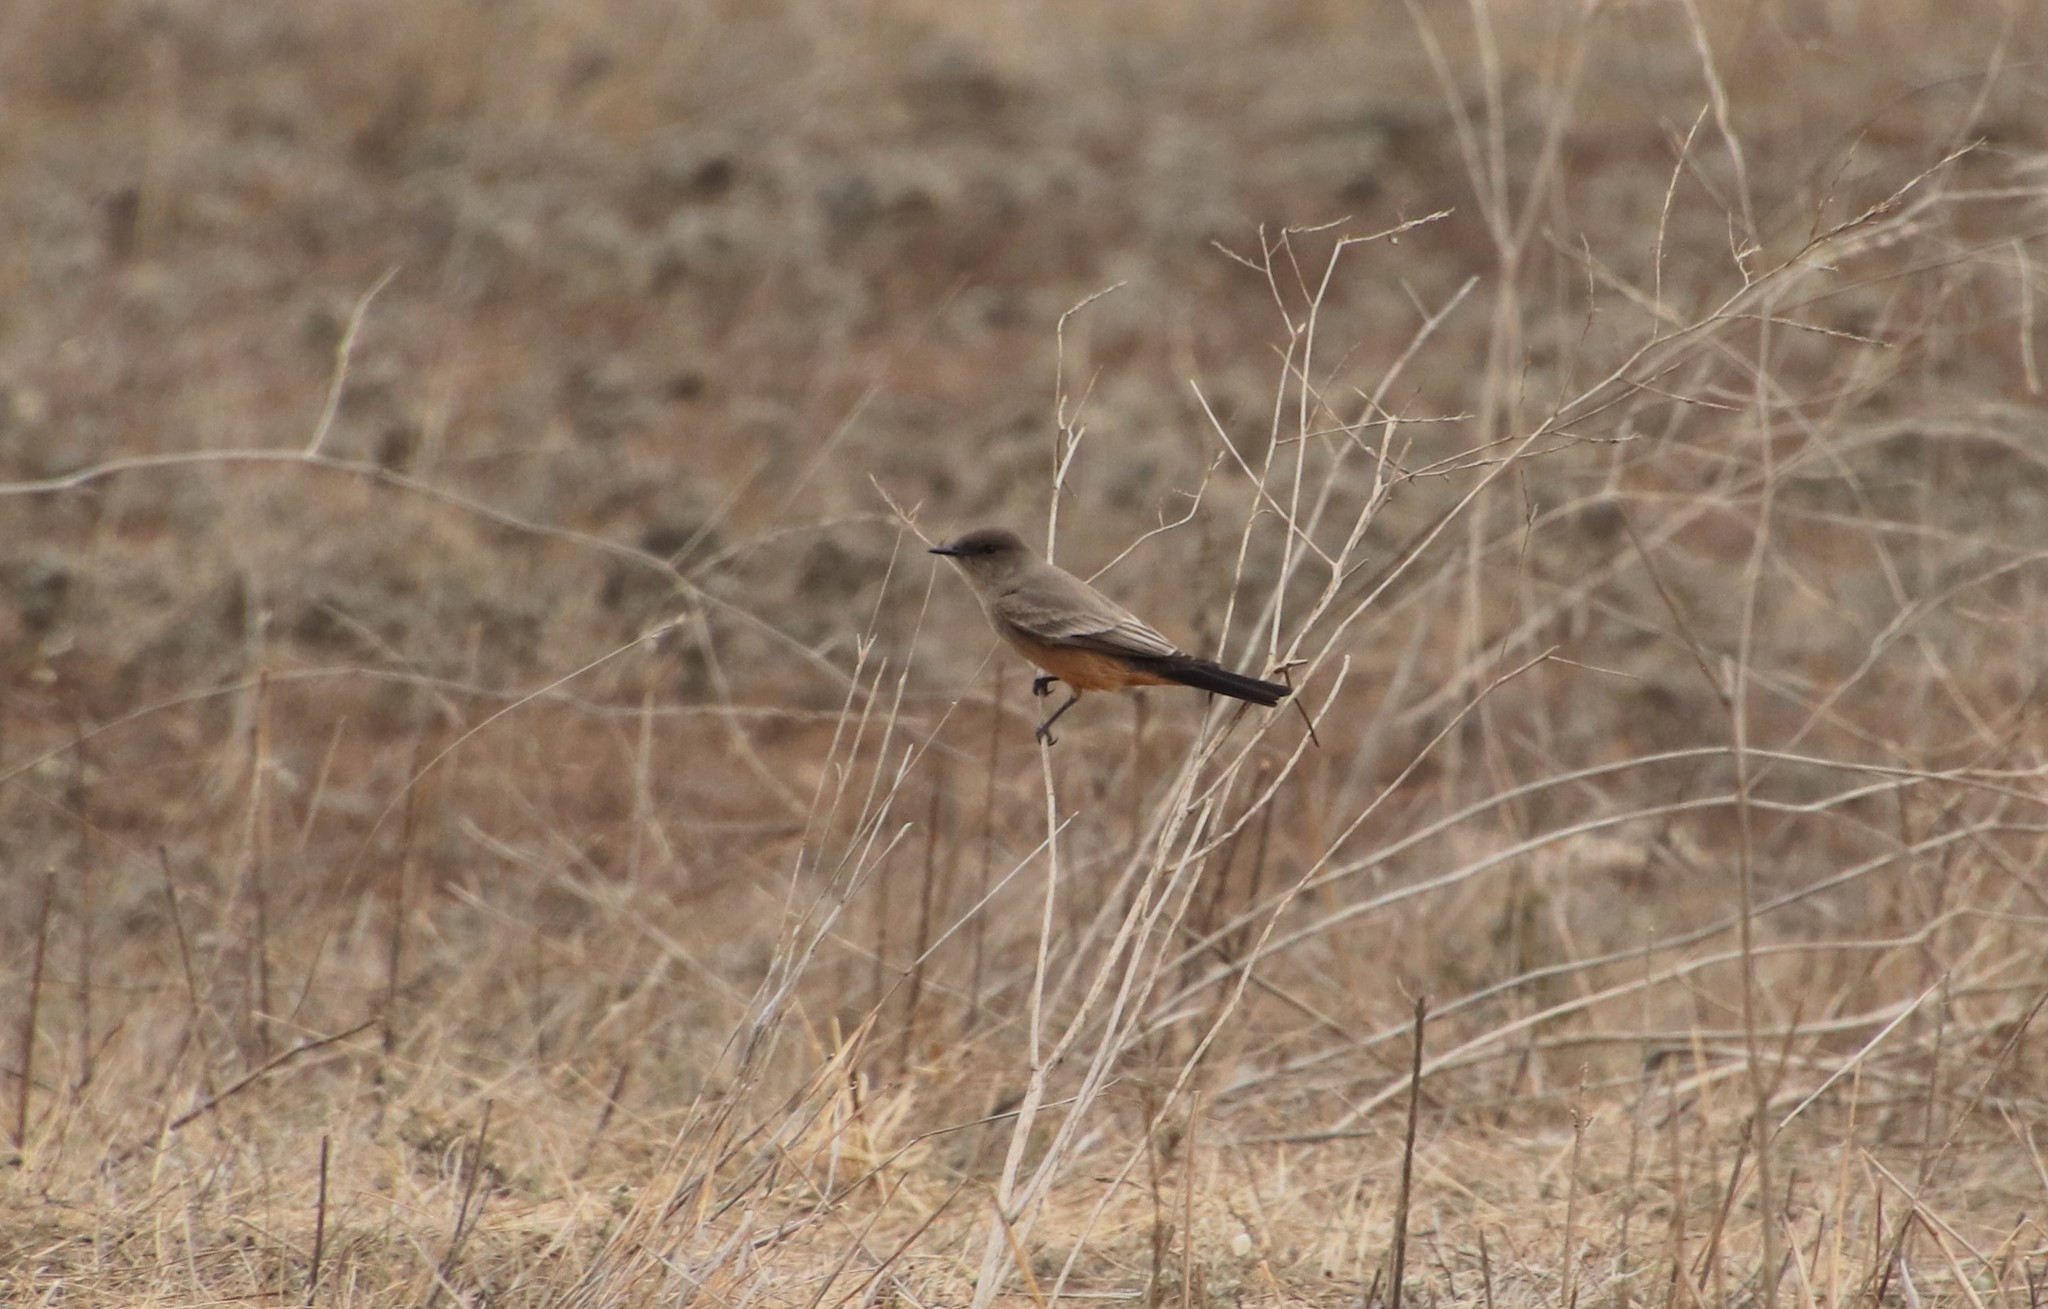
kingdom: Animalia
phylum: Chordata
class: Aves
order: Passeriformes
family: Tyrannidae
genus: Sayornis
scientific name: Sayornis saya
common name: Say's phoebe
